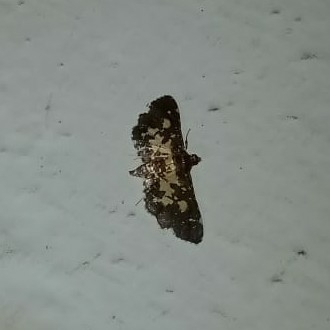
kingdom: Animalia
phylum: Arthropoda
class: Insecta
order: Lepidoptera
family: Crambidae
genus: Eurrhyparodes
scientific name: Eurrhyparodes bracteolalis
